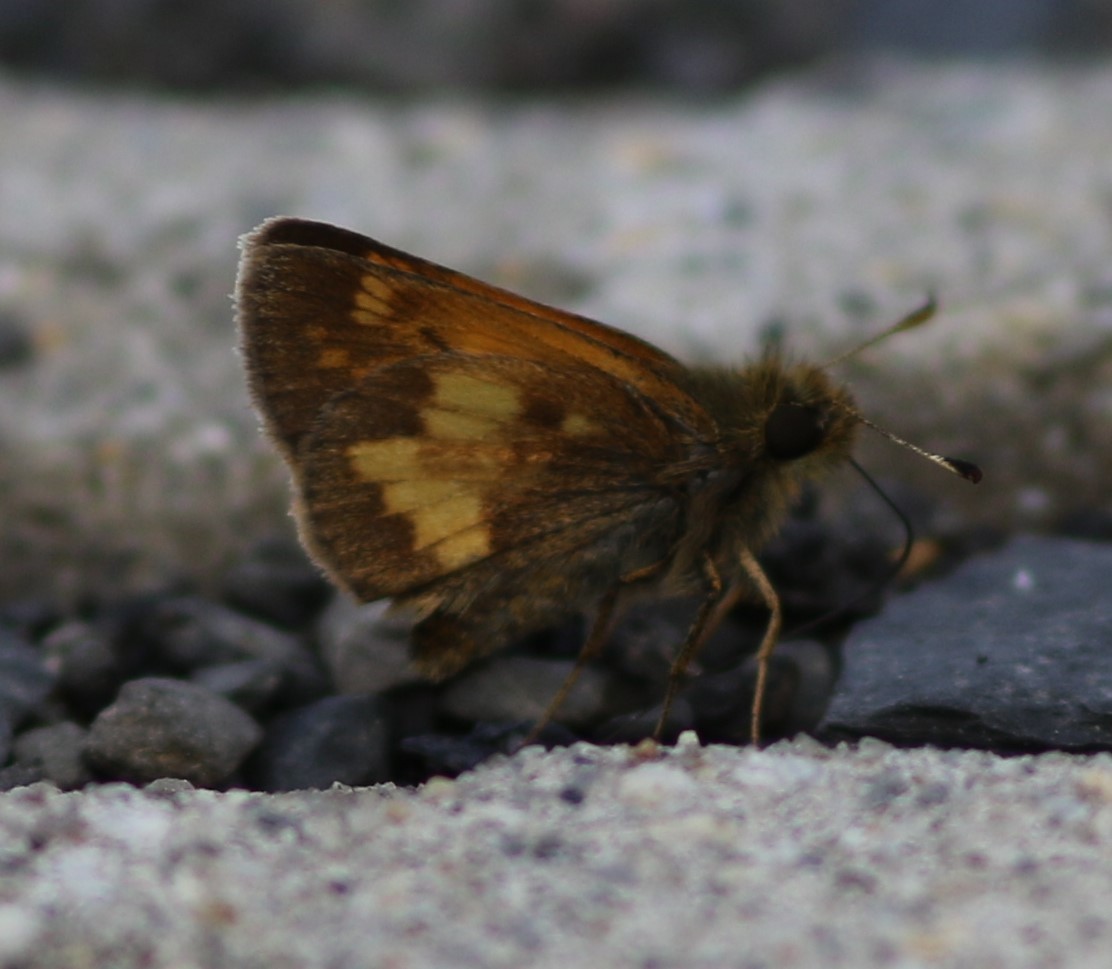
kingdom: Animalia
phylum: Arthropoda
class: Insecta
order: Lepidoptera
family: Hesperiidae
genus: Lon
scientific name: Lon hobomok
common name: Hobomok skipper
